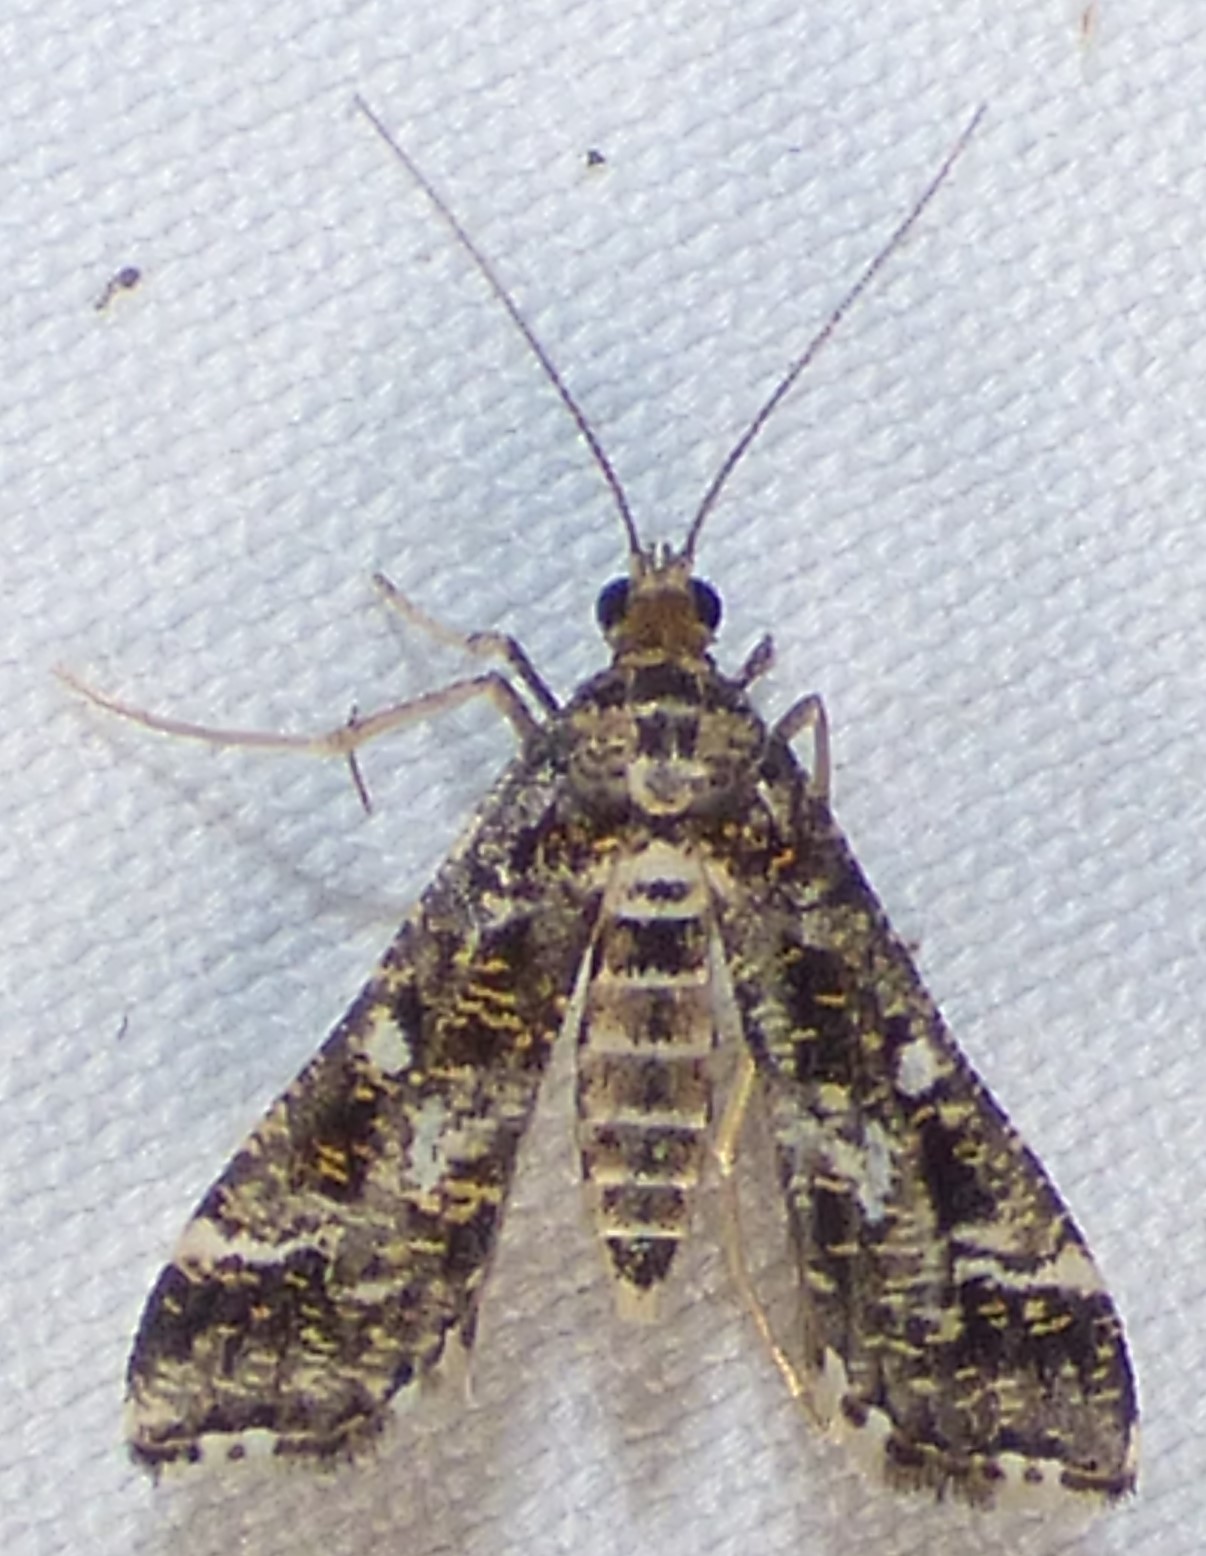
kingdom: Animalia
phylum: Arthropoda
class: Insecta
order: Lepidoptera
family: Crambidae
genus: Diasemiopsis
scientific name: Diasemiopsis ramburialis
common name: Vagrant china-mark
